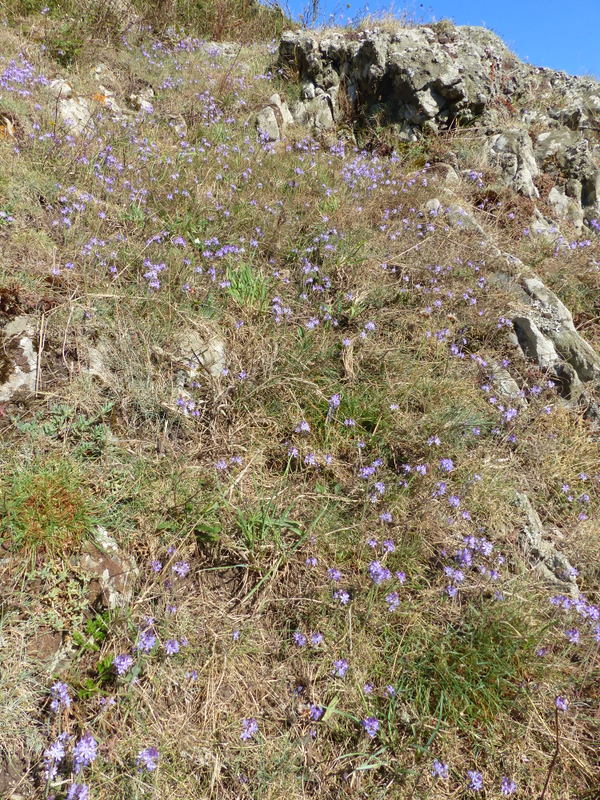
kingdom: Plantae
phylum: Tracheophyta
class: Liliopsida
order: Asparagales
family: Asparagaceae
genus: Prospero
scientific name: Prospero autumnale
